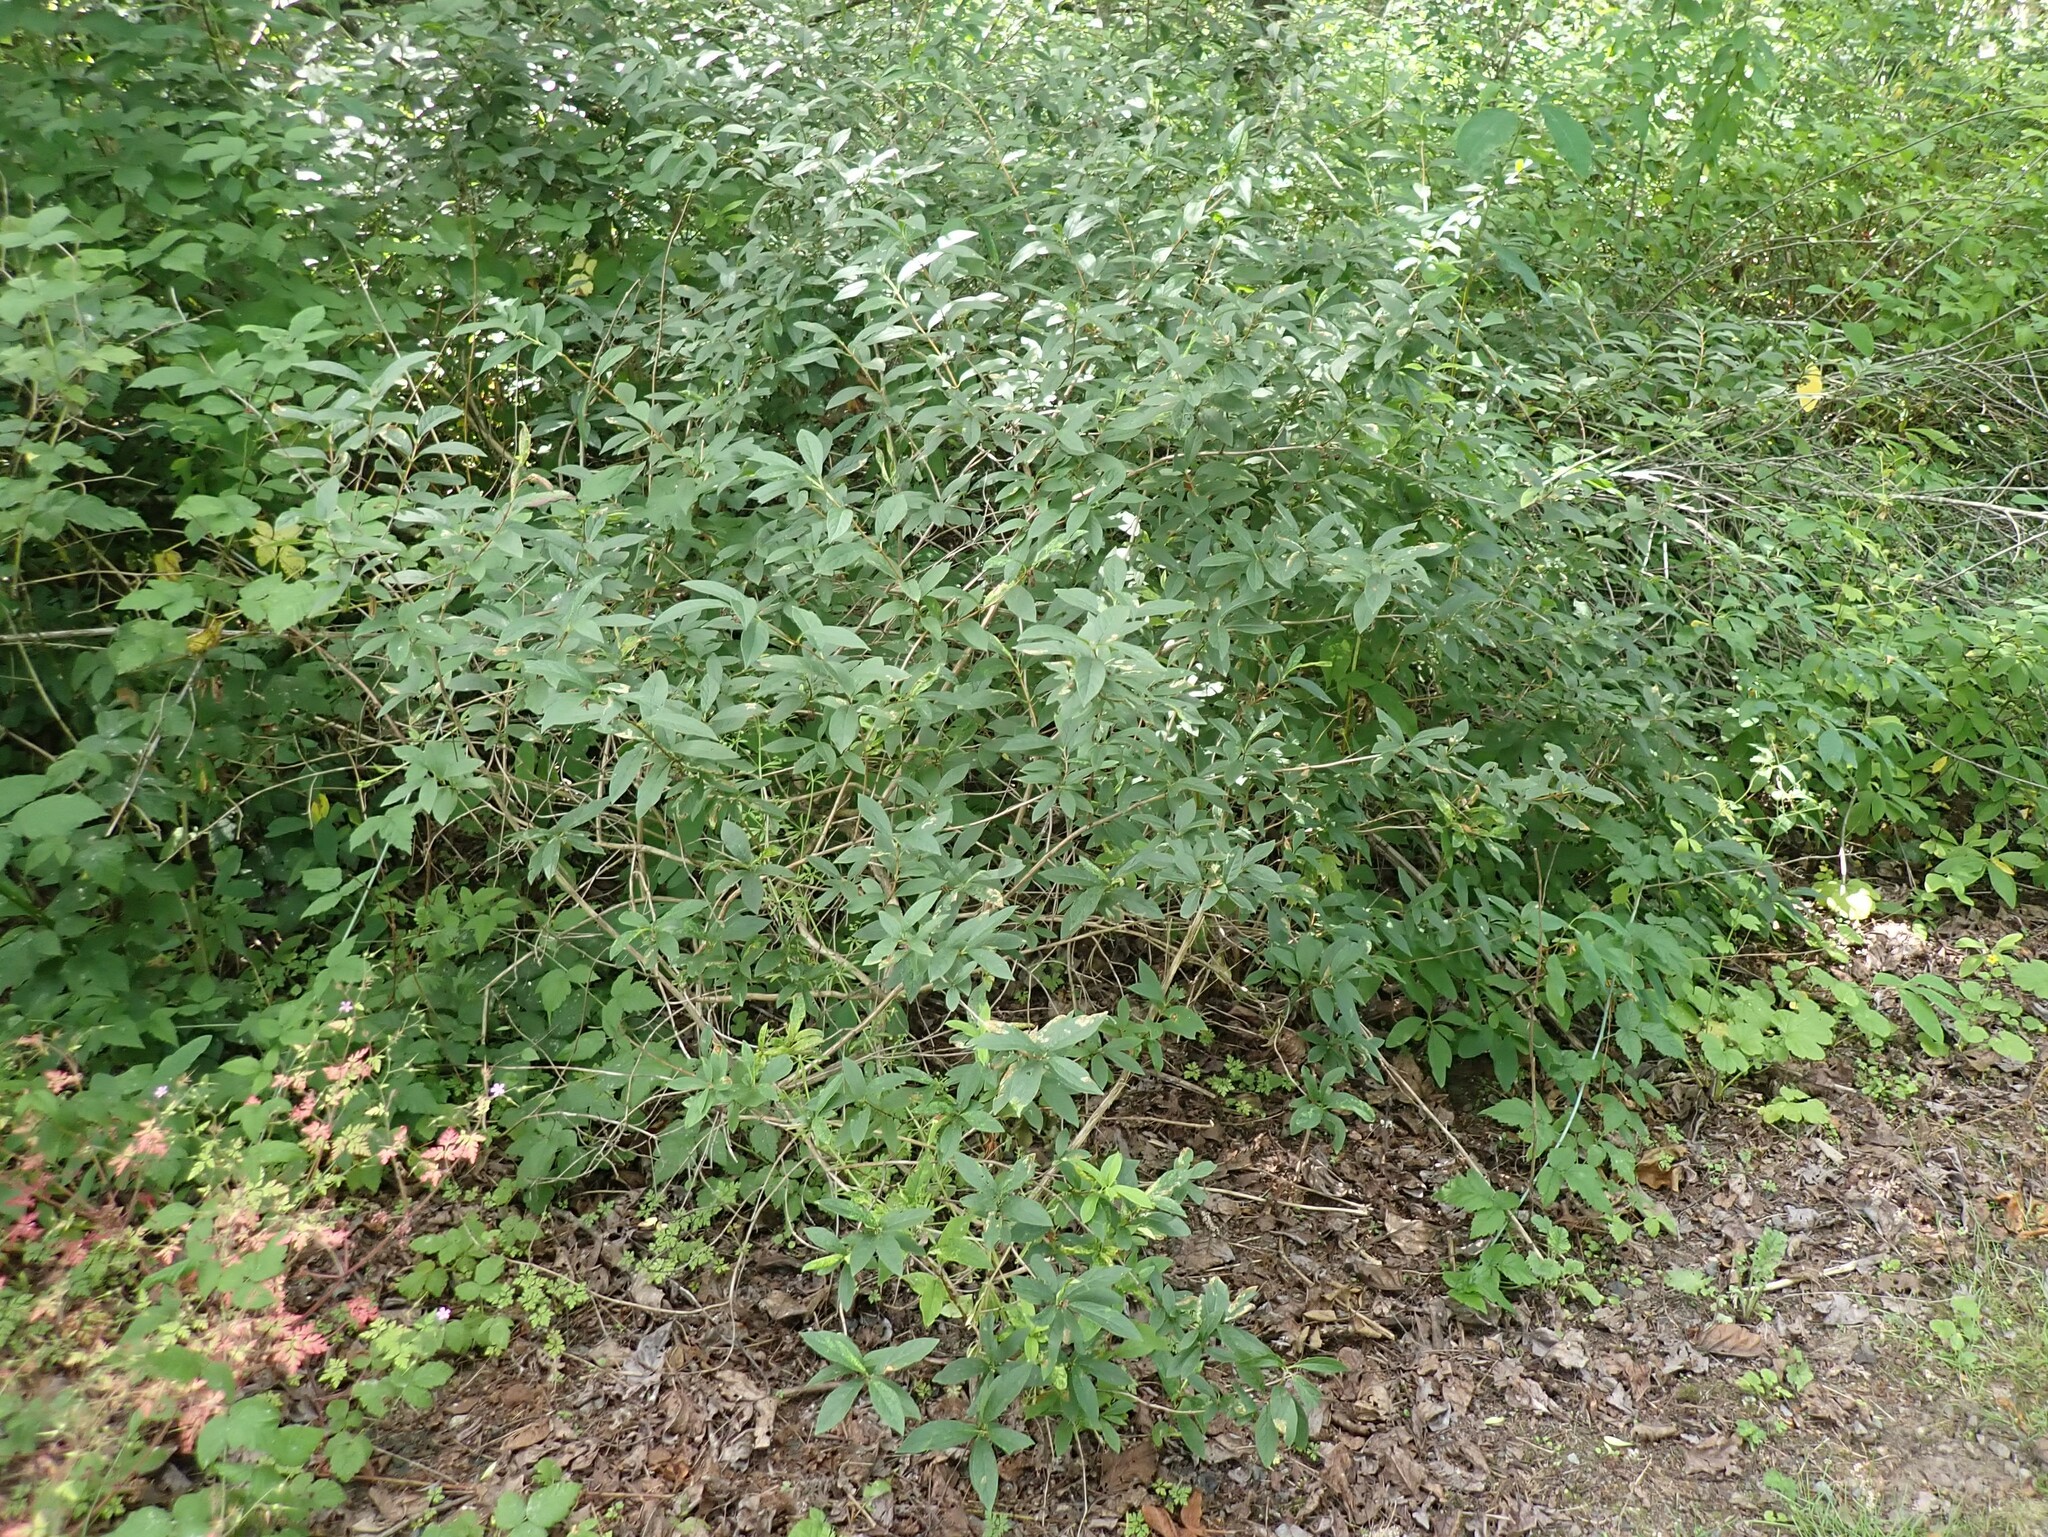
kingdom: Plantae
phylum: Tracheophyta
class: Magnoliopsida
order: Dipsacales
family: Caprifoliaceae
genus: Lonicera
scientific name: Lonicera involucrata
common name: Californian honeysuckle
